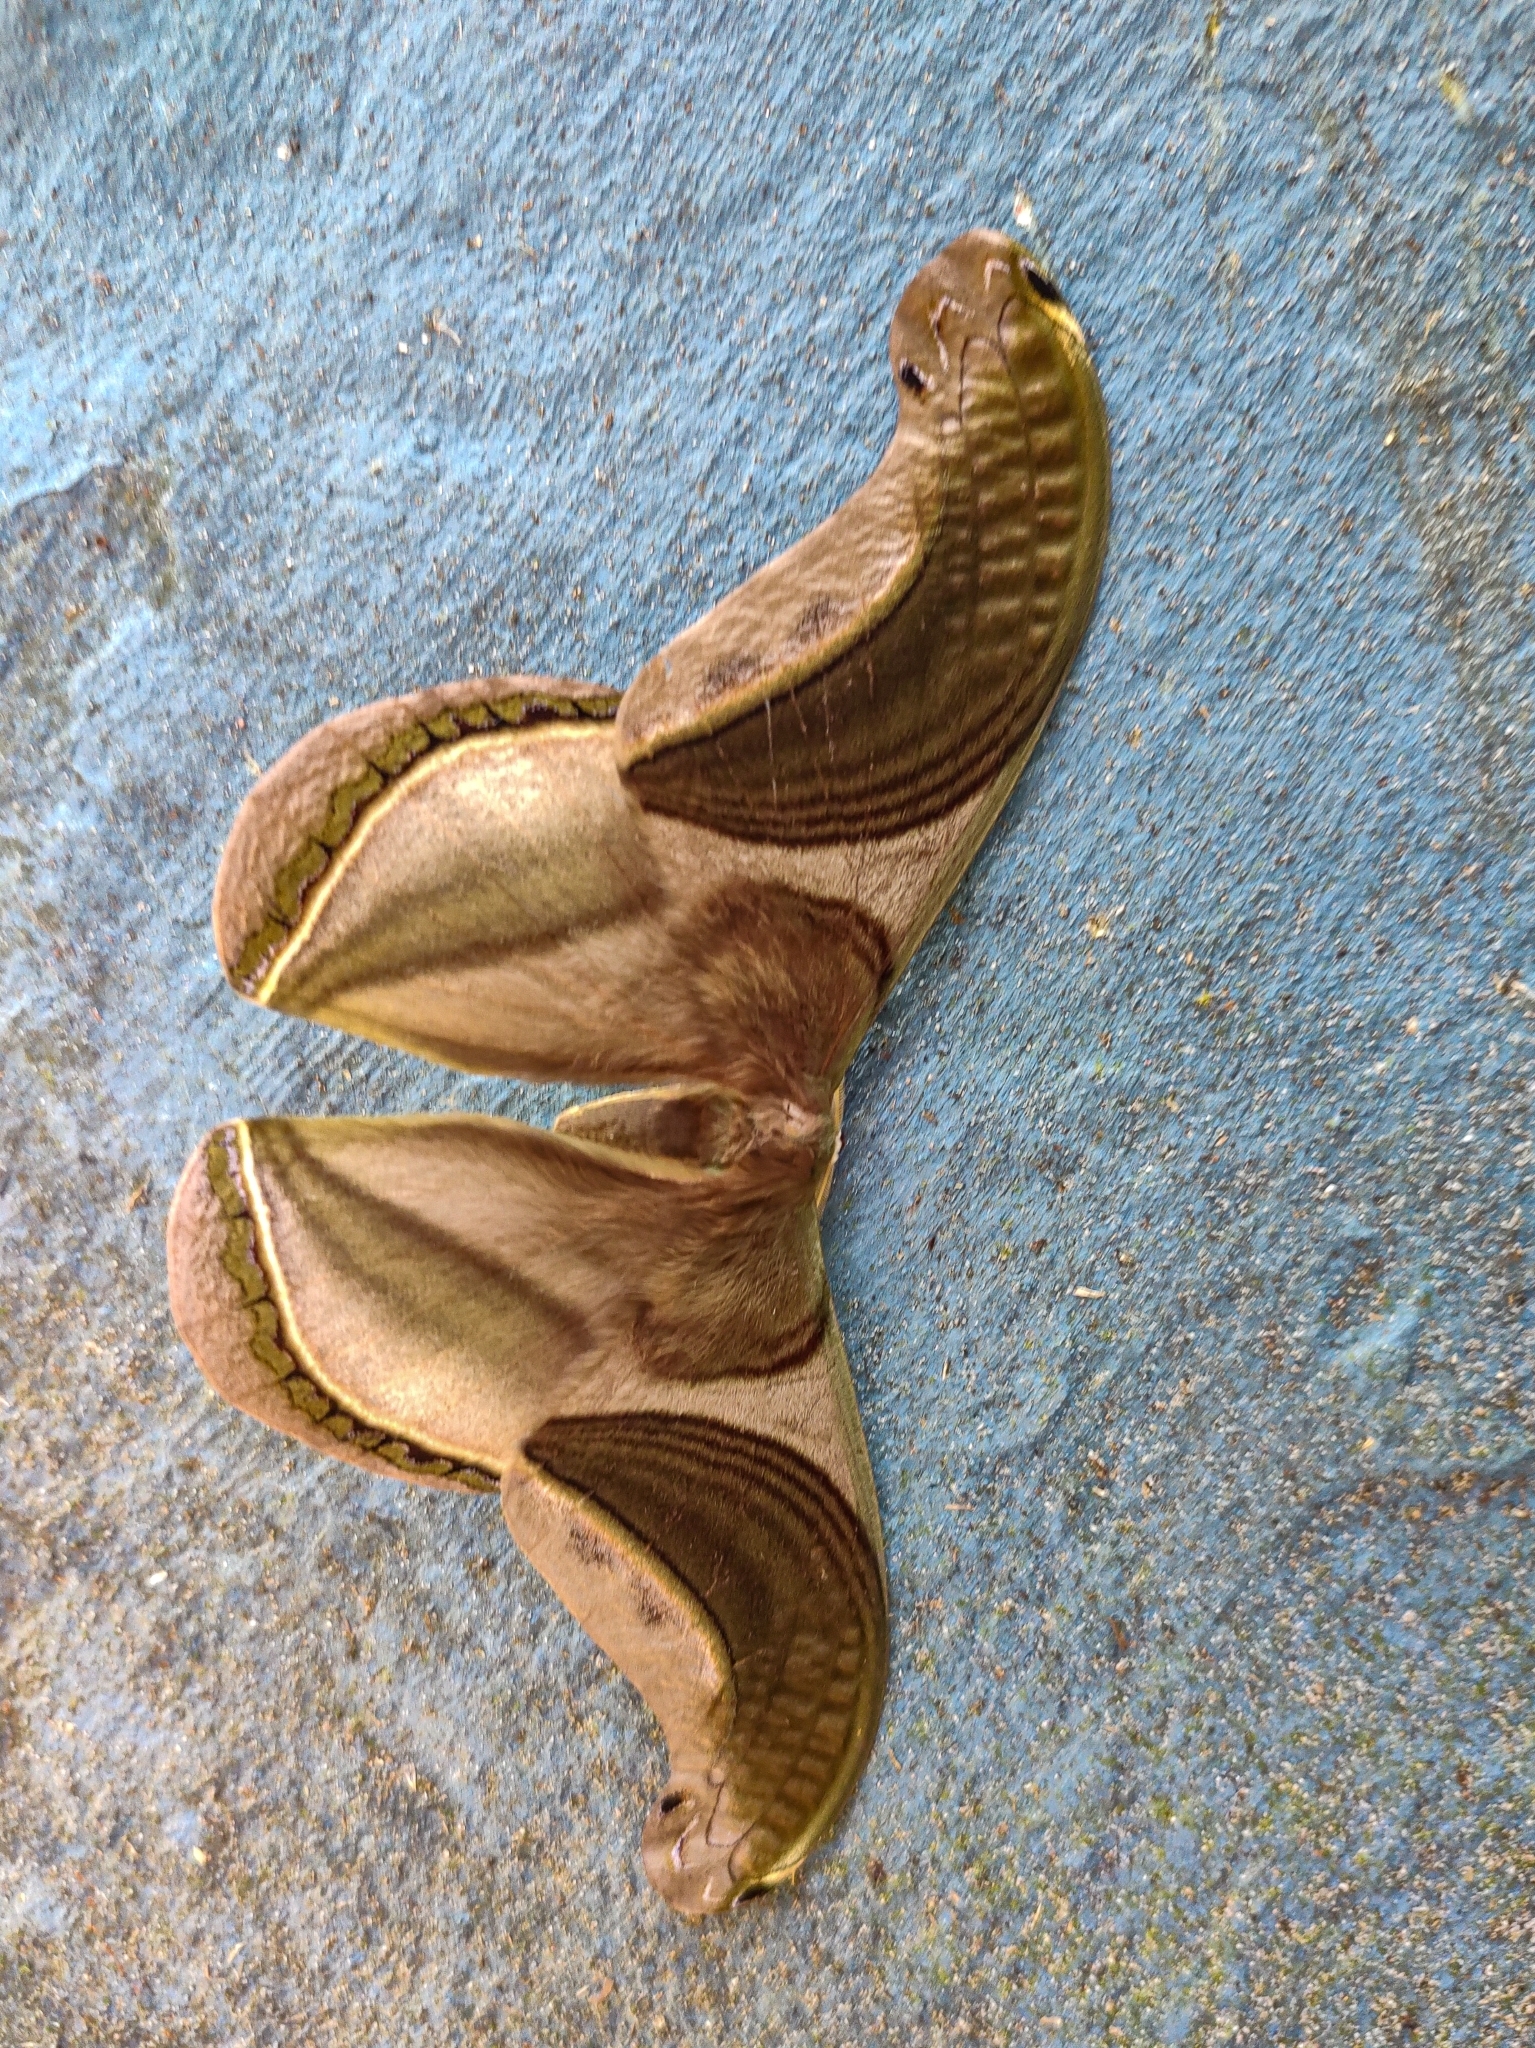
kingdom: Animalia
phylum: Arthropoda
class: Insecta
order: Lepidoptera
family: Saturniidae
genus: Rhescyntis
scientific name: Rhescyntis pseudomartii
